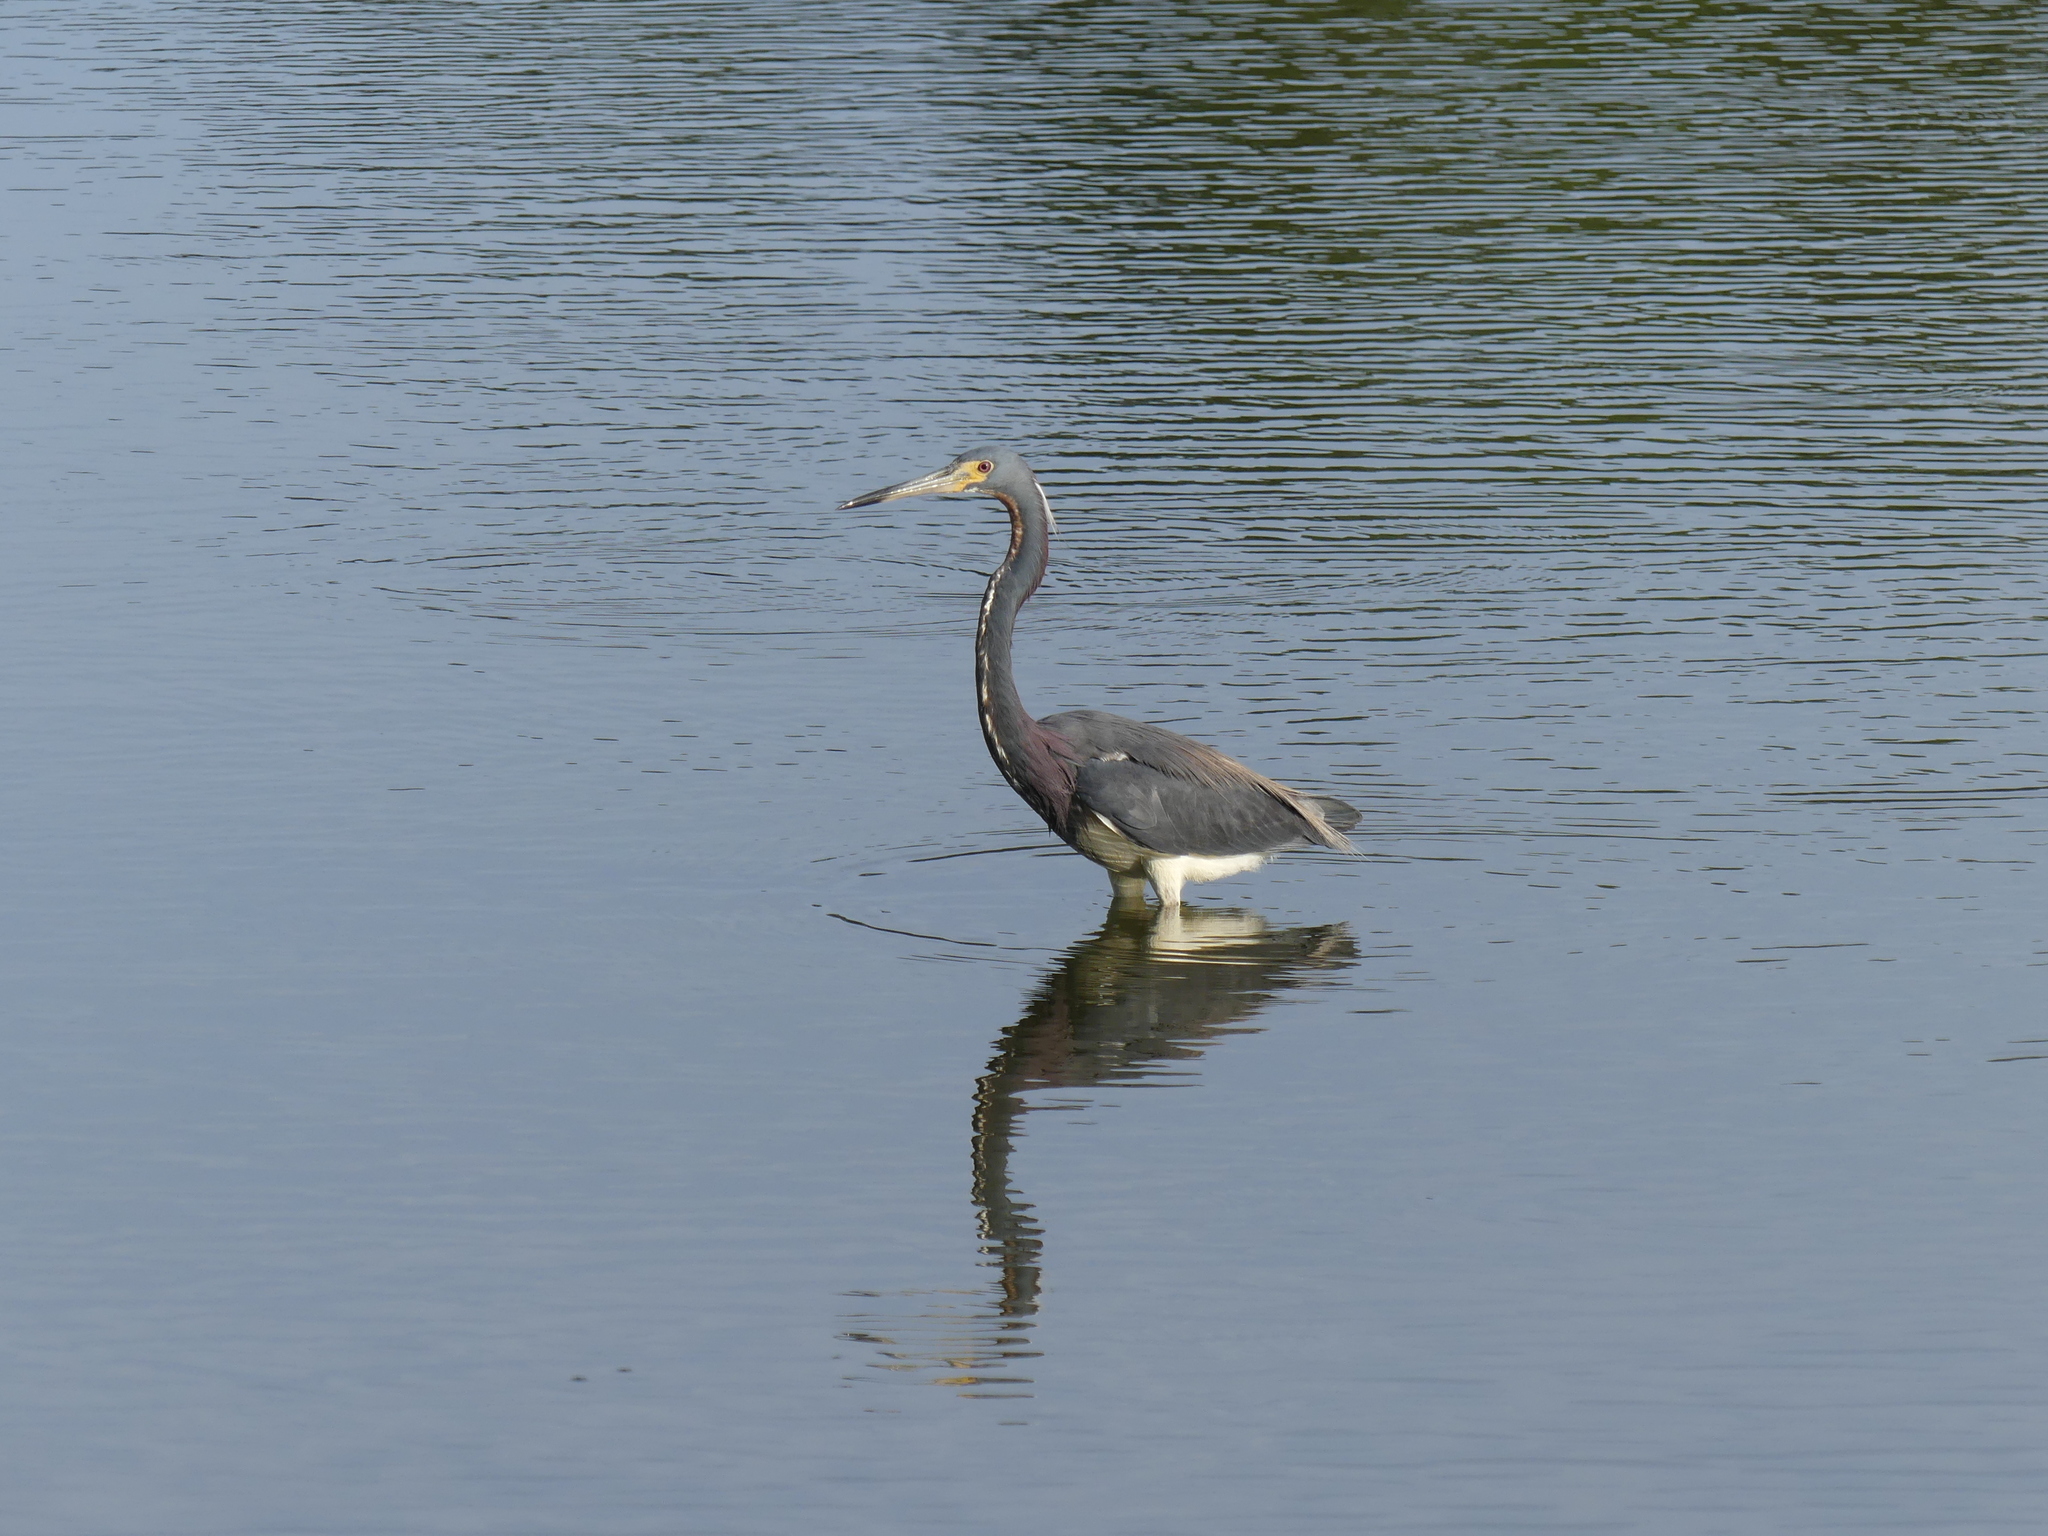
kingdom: Animalia
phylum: Chordata
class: Aves
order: Pelecaniformes
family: Ardeidae
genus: Egretta
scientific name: Egretta tricolor
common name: Tricolored heron
